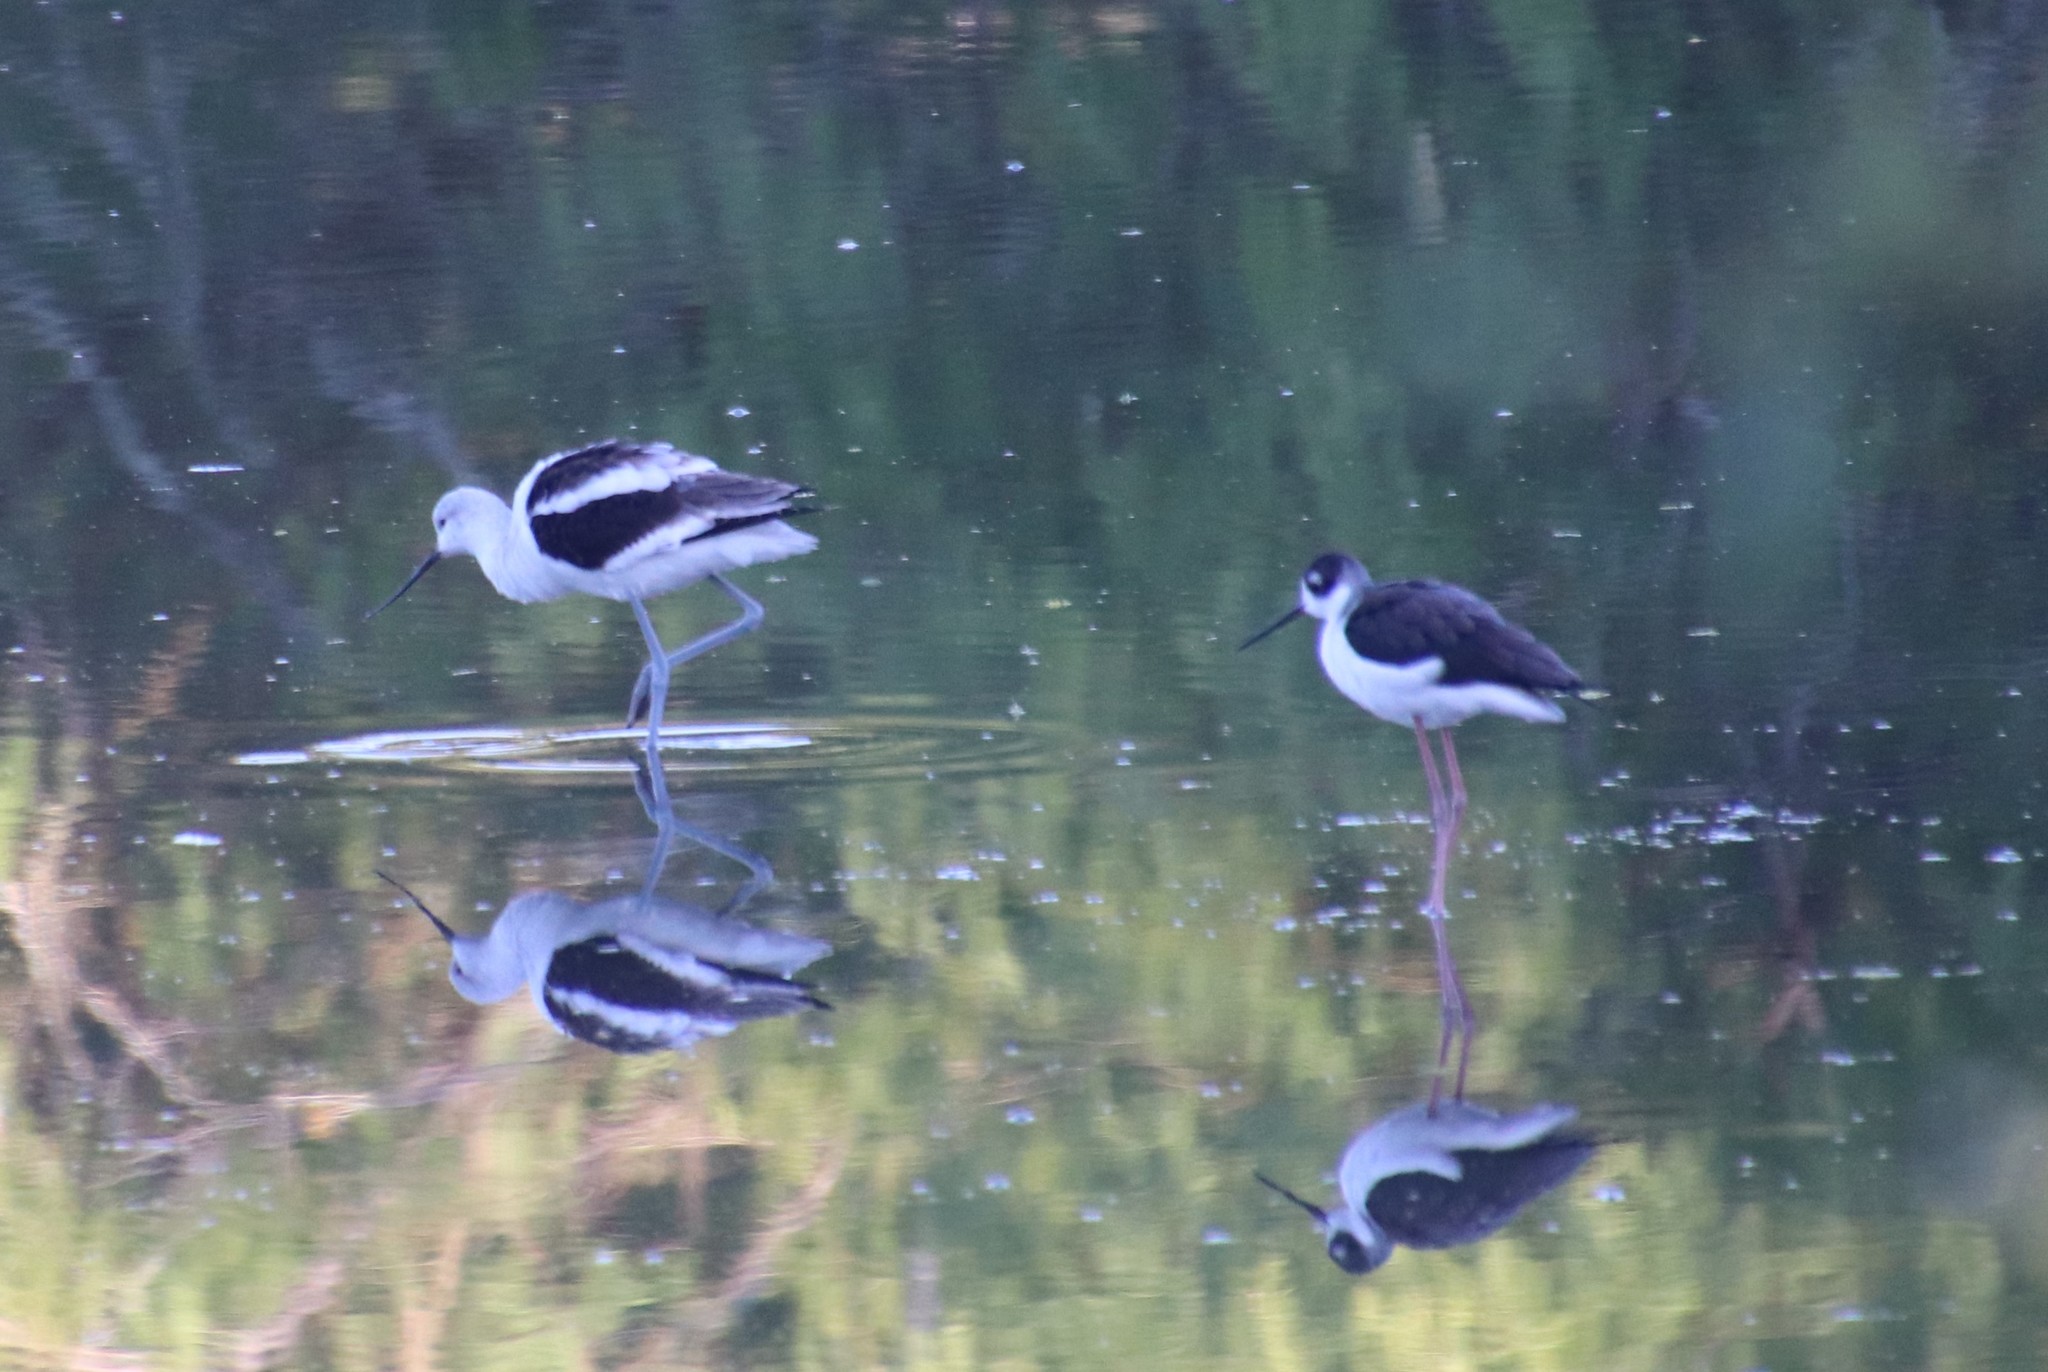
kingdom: Animalia
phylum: Chordata
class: Aves
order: Charadriiformes
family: Recurvirostridae
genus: Himantopus
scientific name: Himantopus mexicanus
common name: Black-necked stilt
